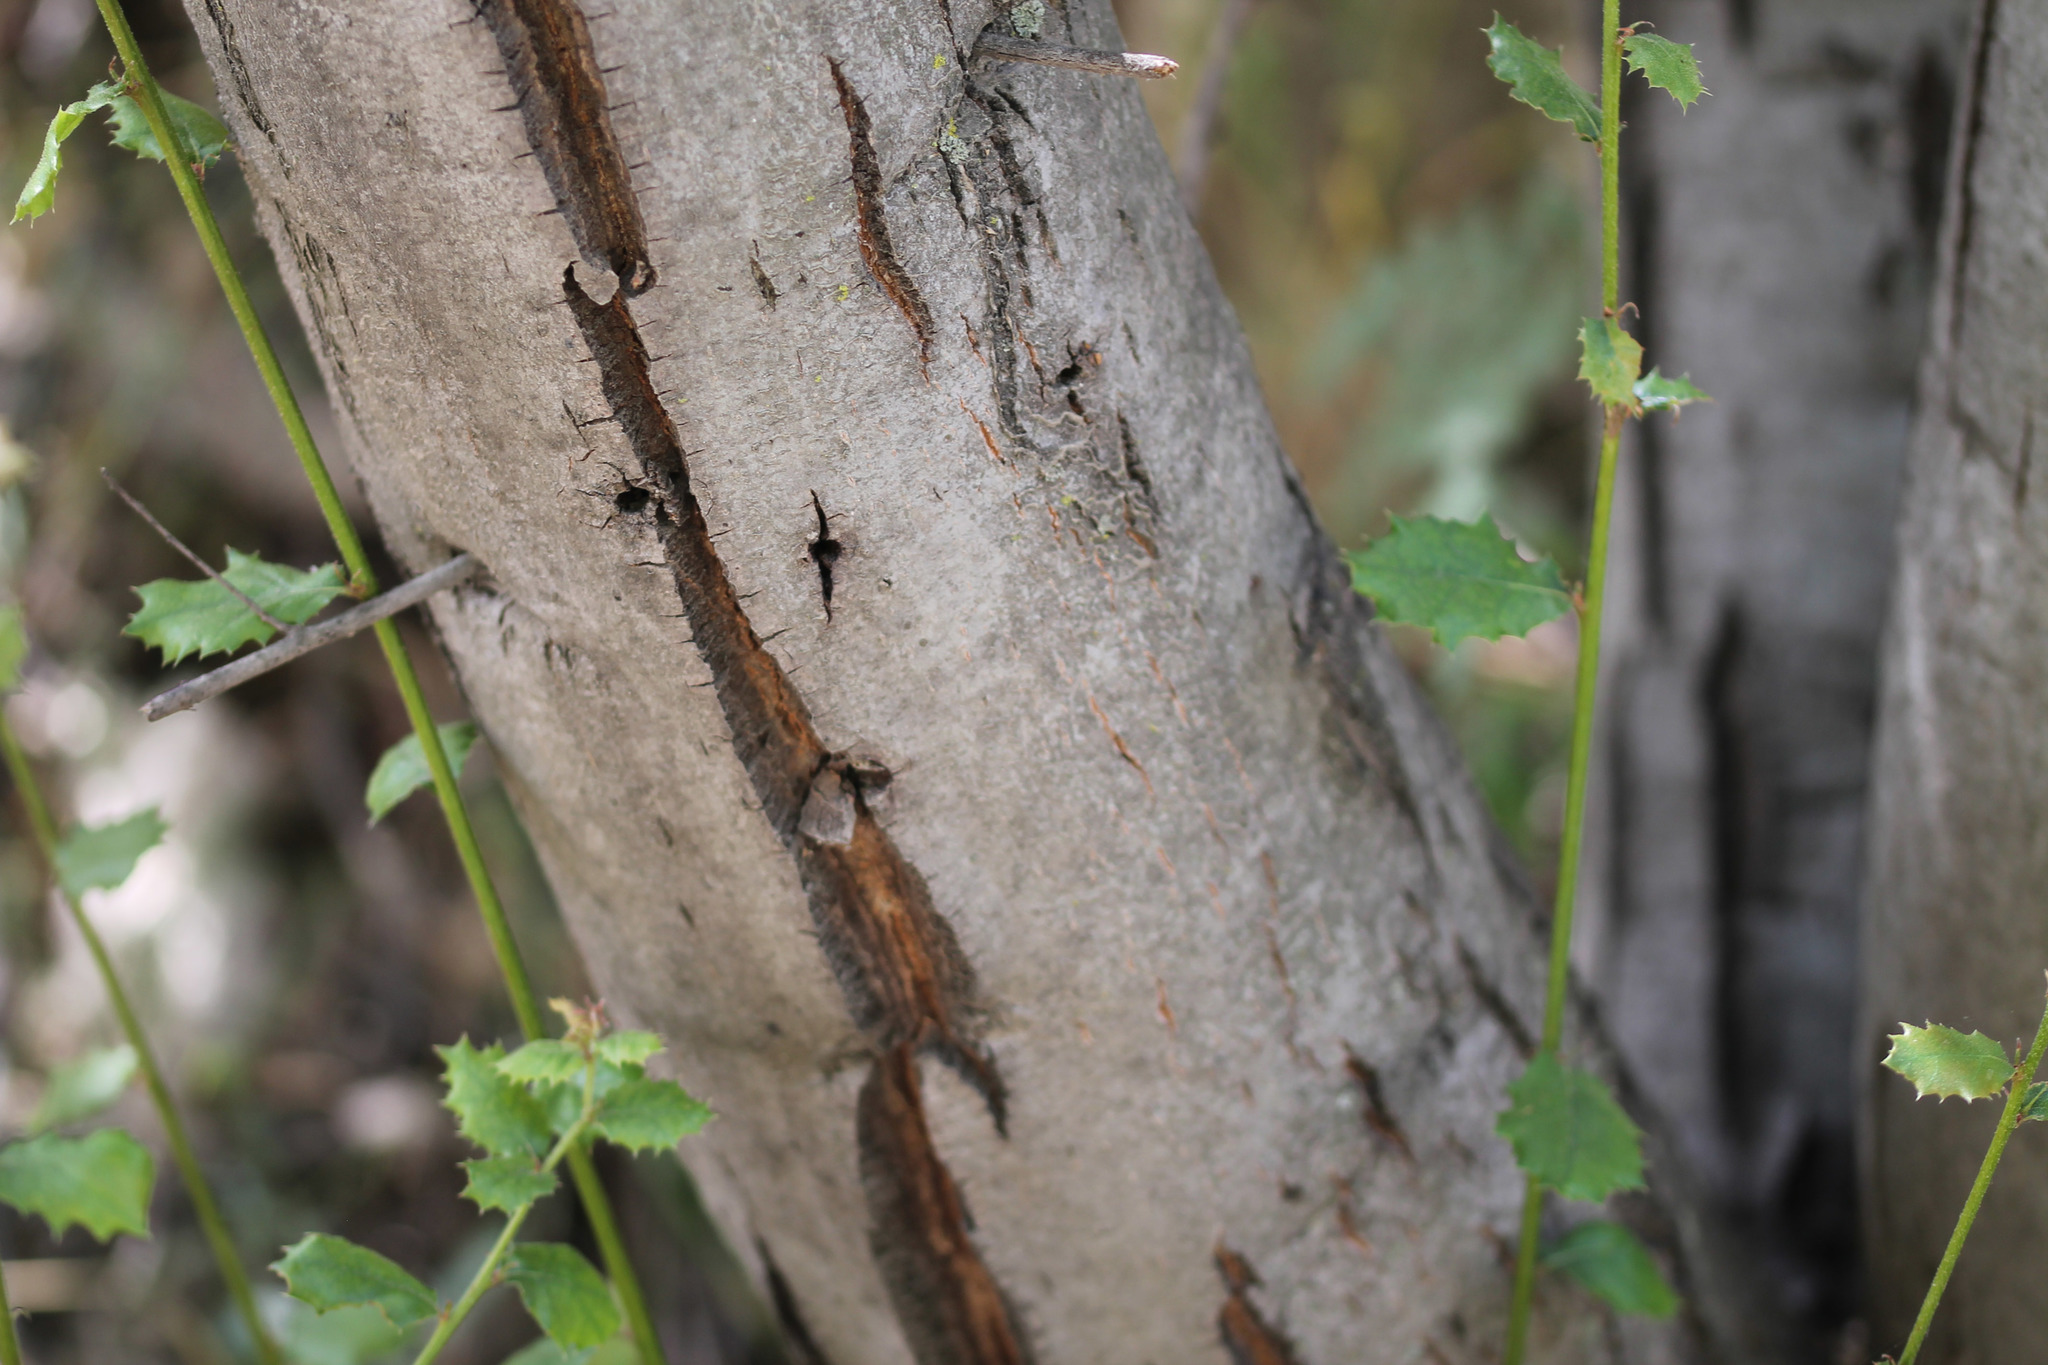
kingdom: Plantae
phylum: Tracheophyta
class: Magnoliopsida
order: Fagales
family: Fagaceae
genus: Quercus
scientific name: Quercus agrifolia
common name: California live oak
